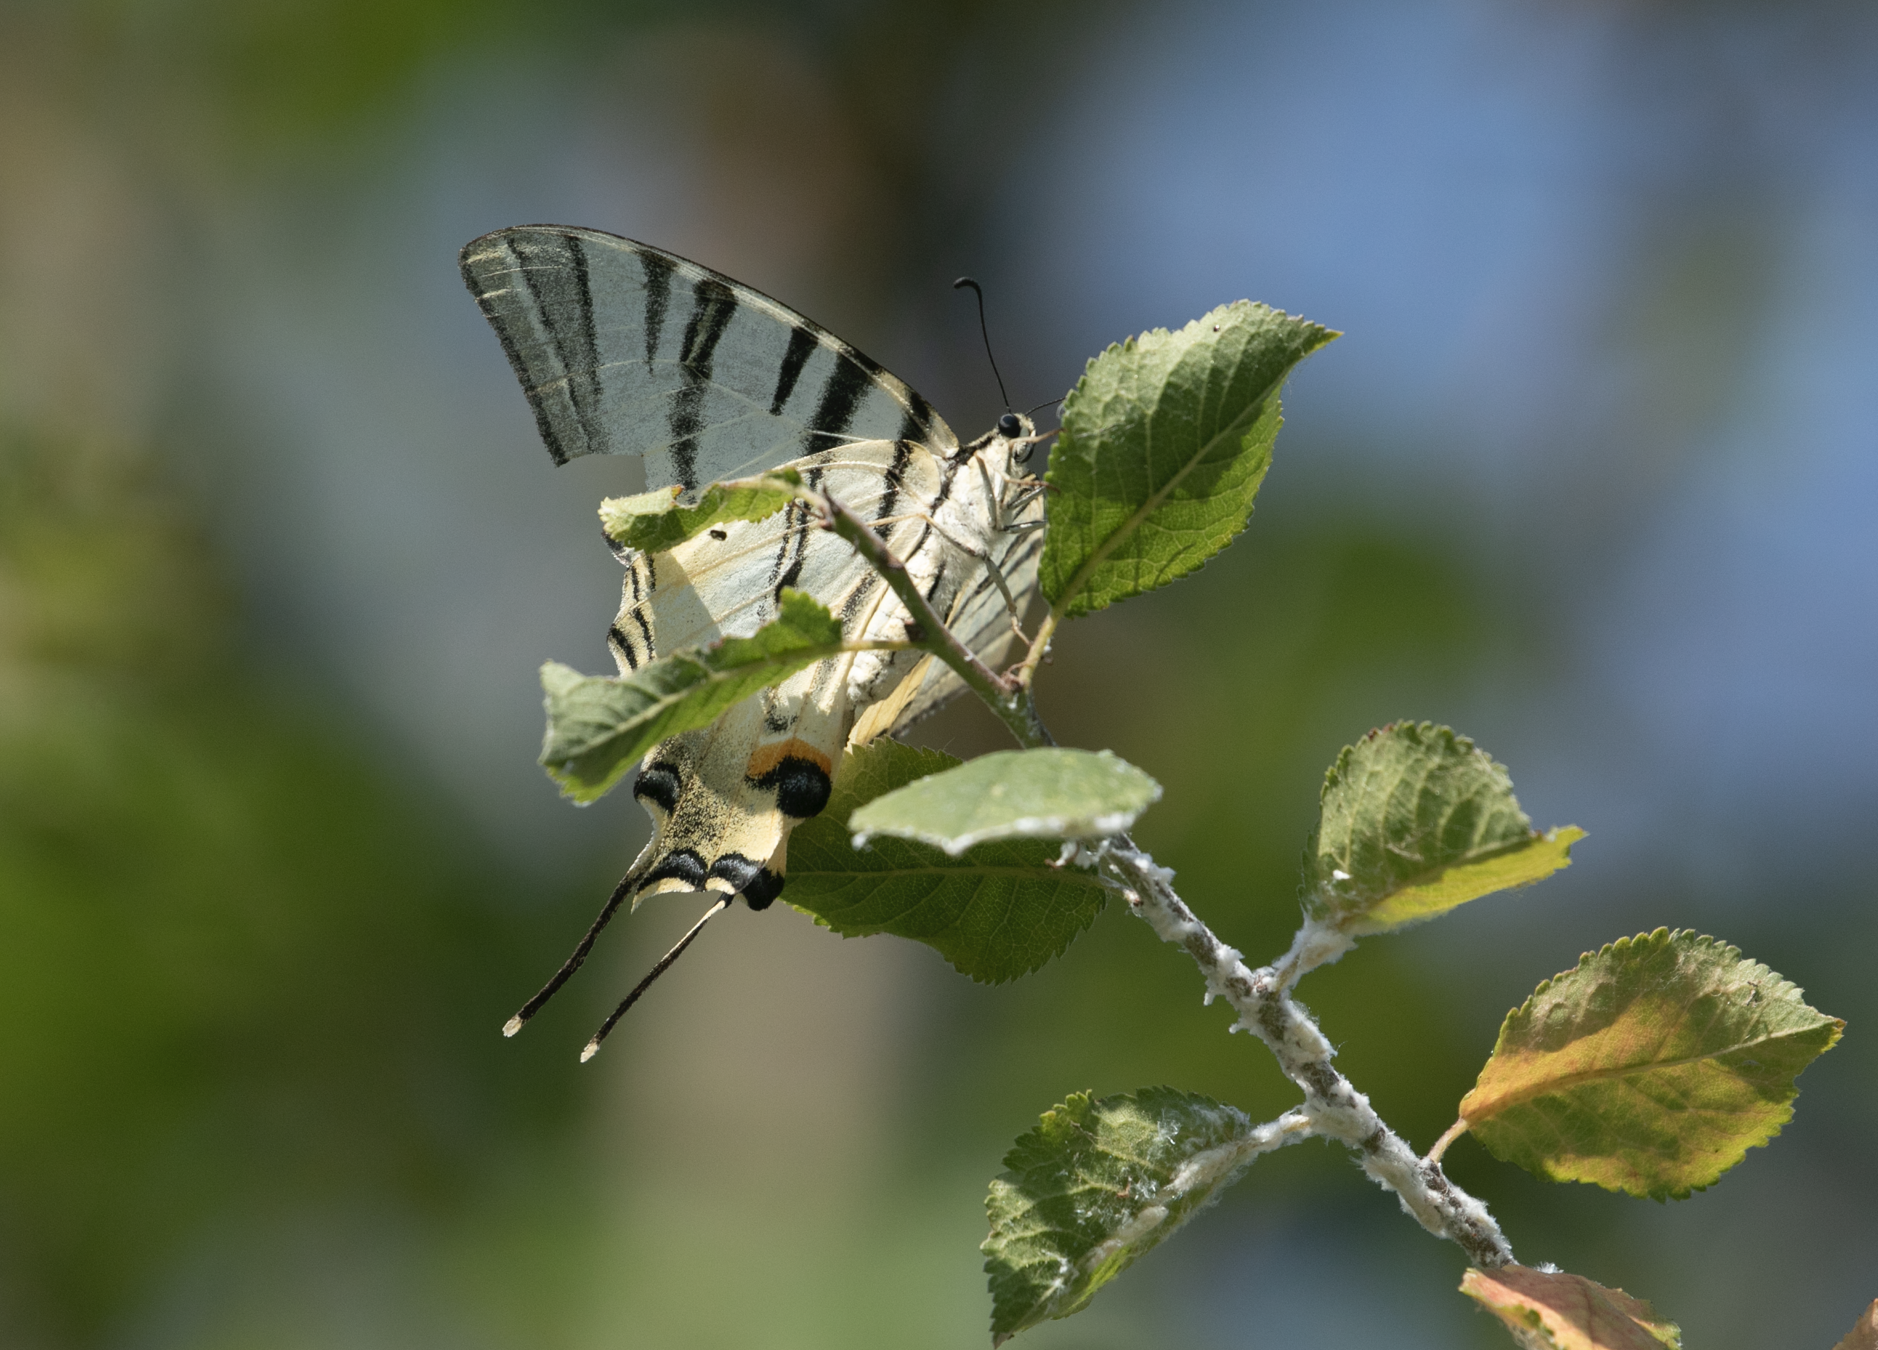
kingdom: Animalia
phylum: Arthropoda
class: Insecta
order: Lepidoptera
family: Papilionidae
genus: Iphiclides
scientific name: Iphiclides podalirius
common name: Scarce swallowtail
